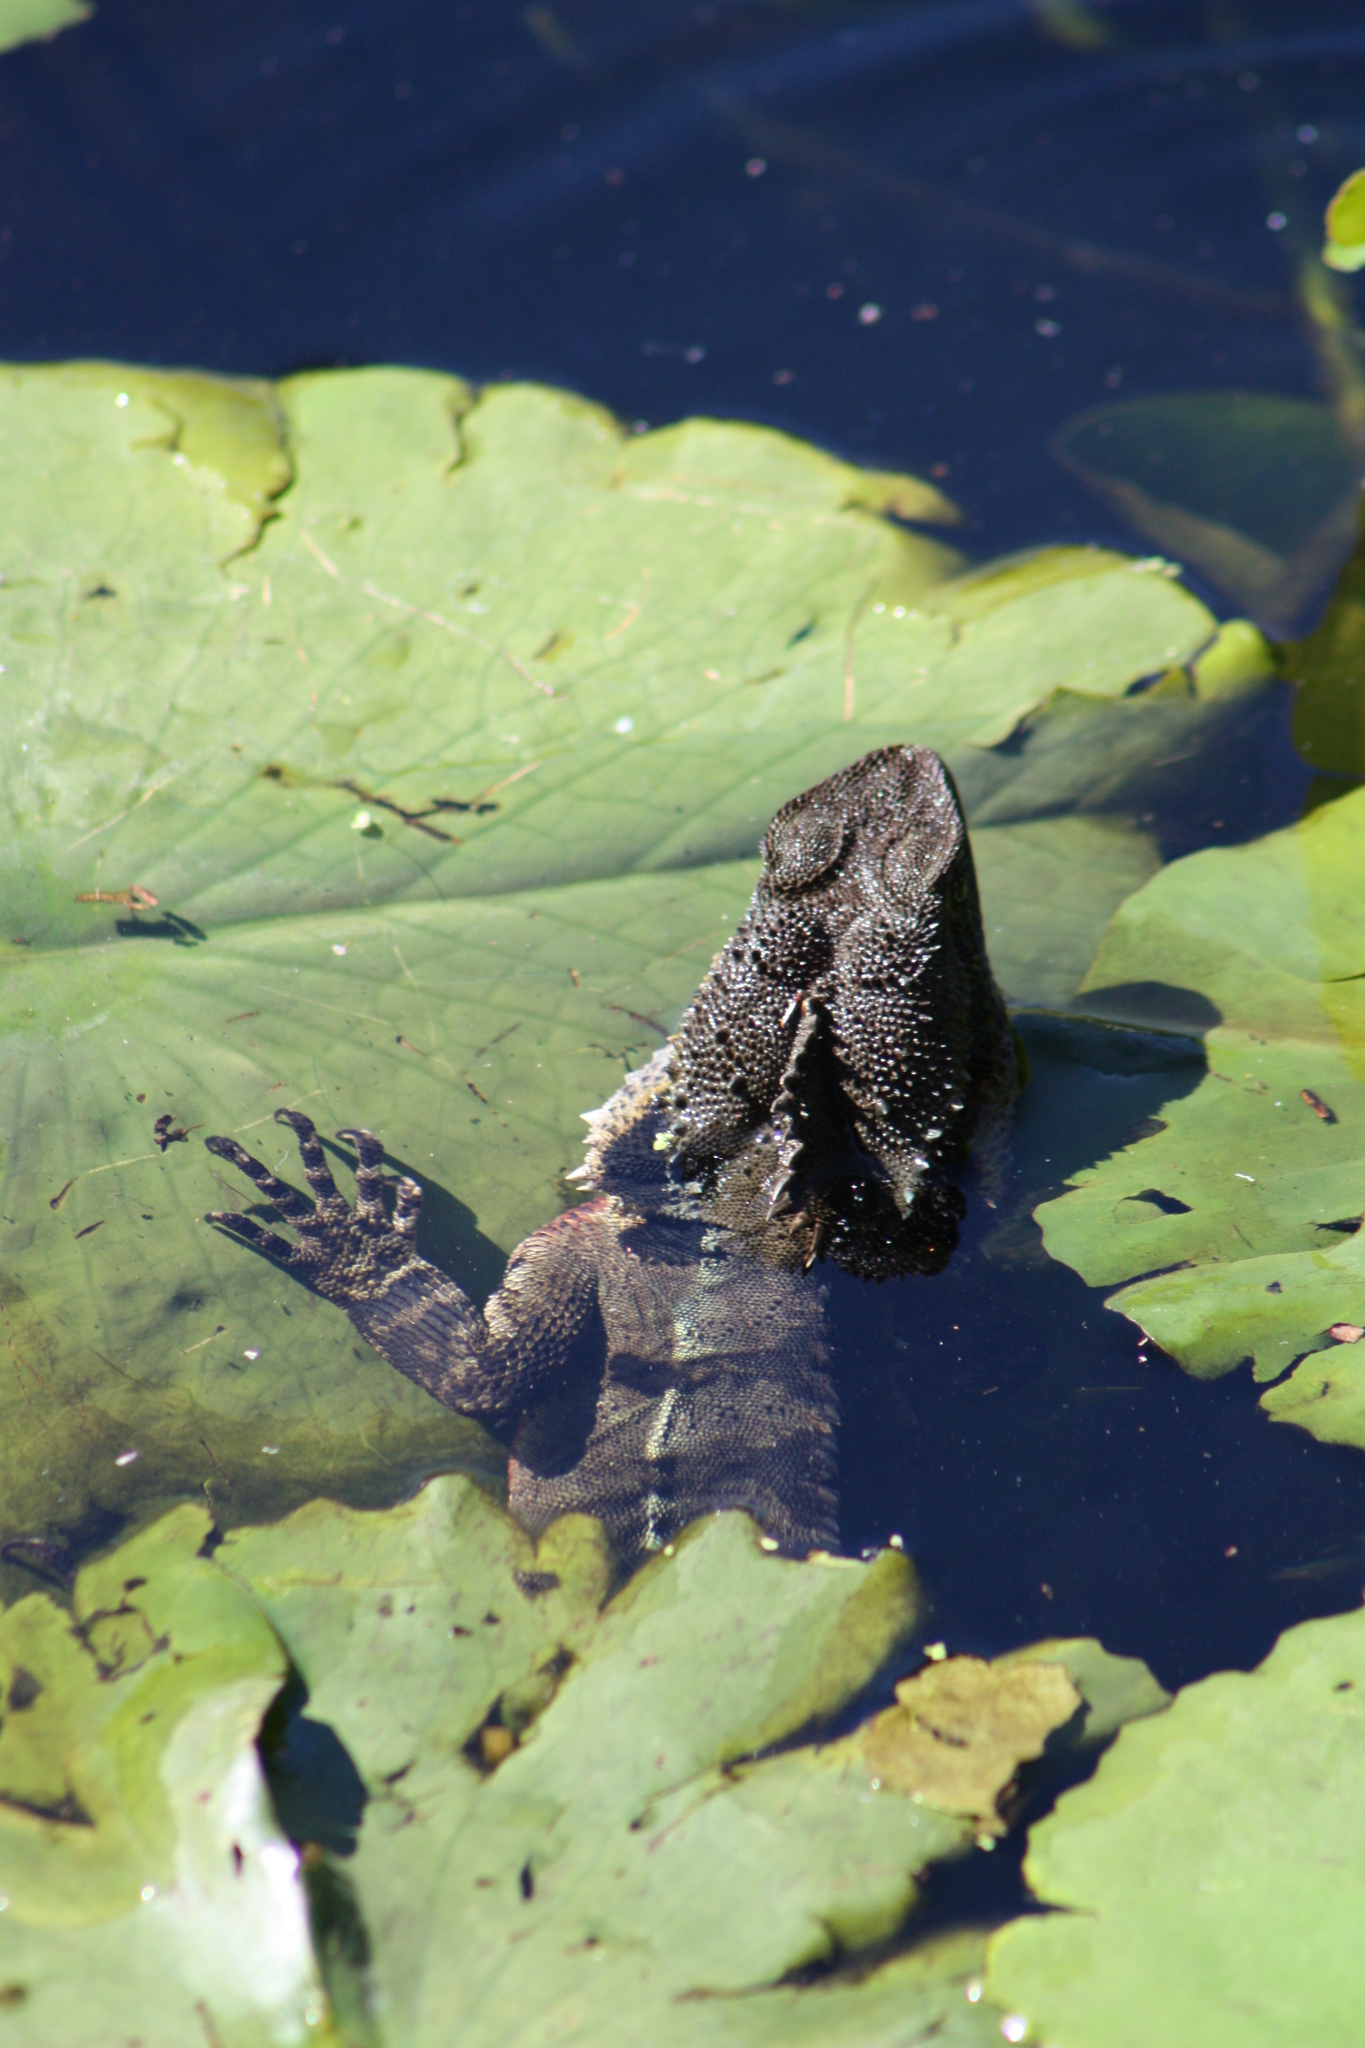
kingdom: Animalia
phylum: Chordata
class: Squamata
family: Agamidae
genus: Intellagama
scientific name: Intellagama lesueurii
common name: Eastern water dragon
